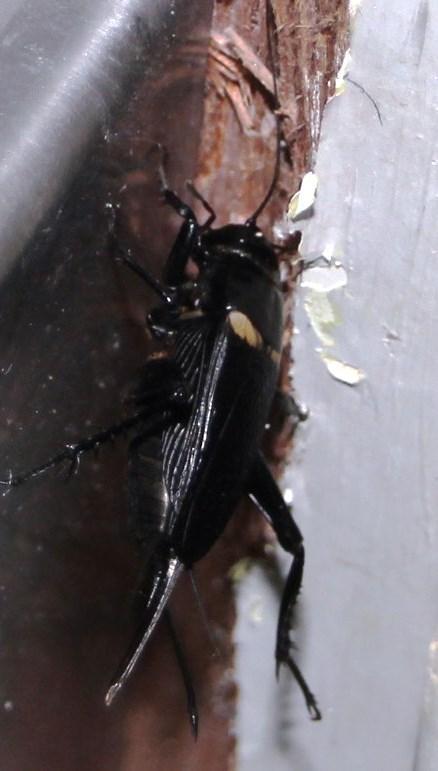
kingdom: Animalia
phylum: Arthropoda
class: Insecta
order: Orthoptera
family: Gryllidae
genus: Gryllus
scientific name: Gryllus bimaculatus
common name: Two-spotted cricket
